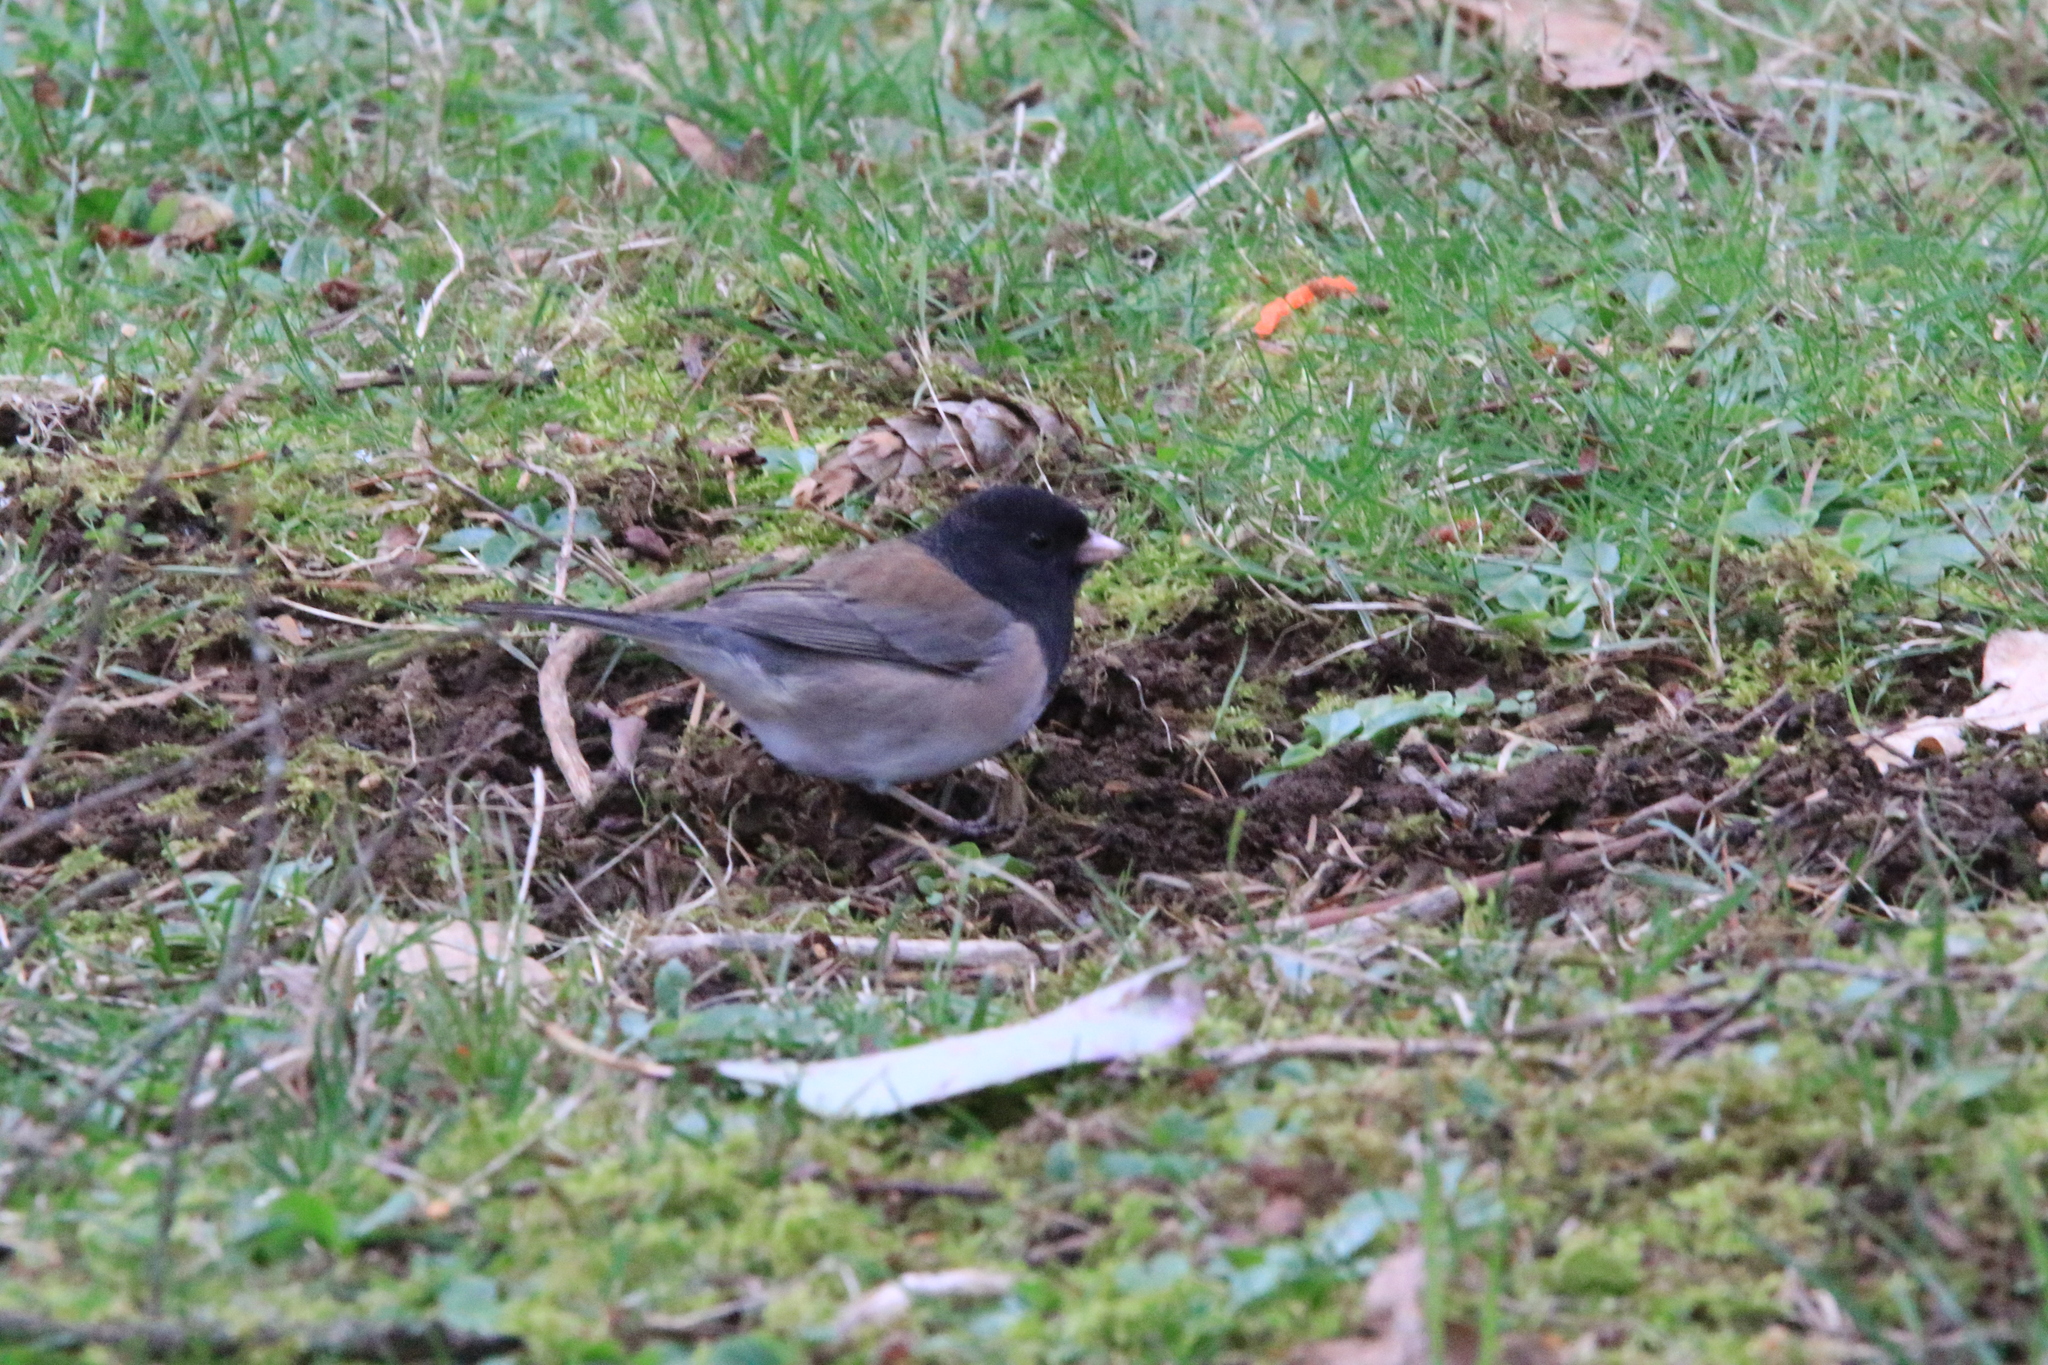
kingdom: Animalia
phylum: Chordata
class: Aves
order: Passeriformes
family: Passerellidae
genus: Junco
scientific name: Junco hyemalis
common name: Dark-eyed junco
